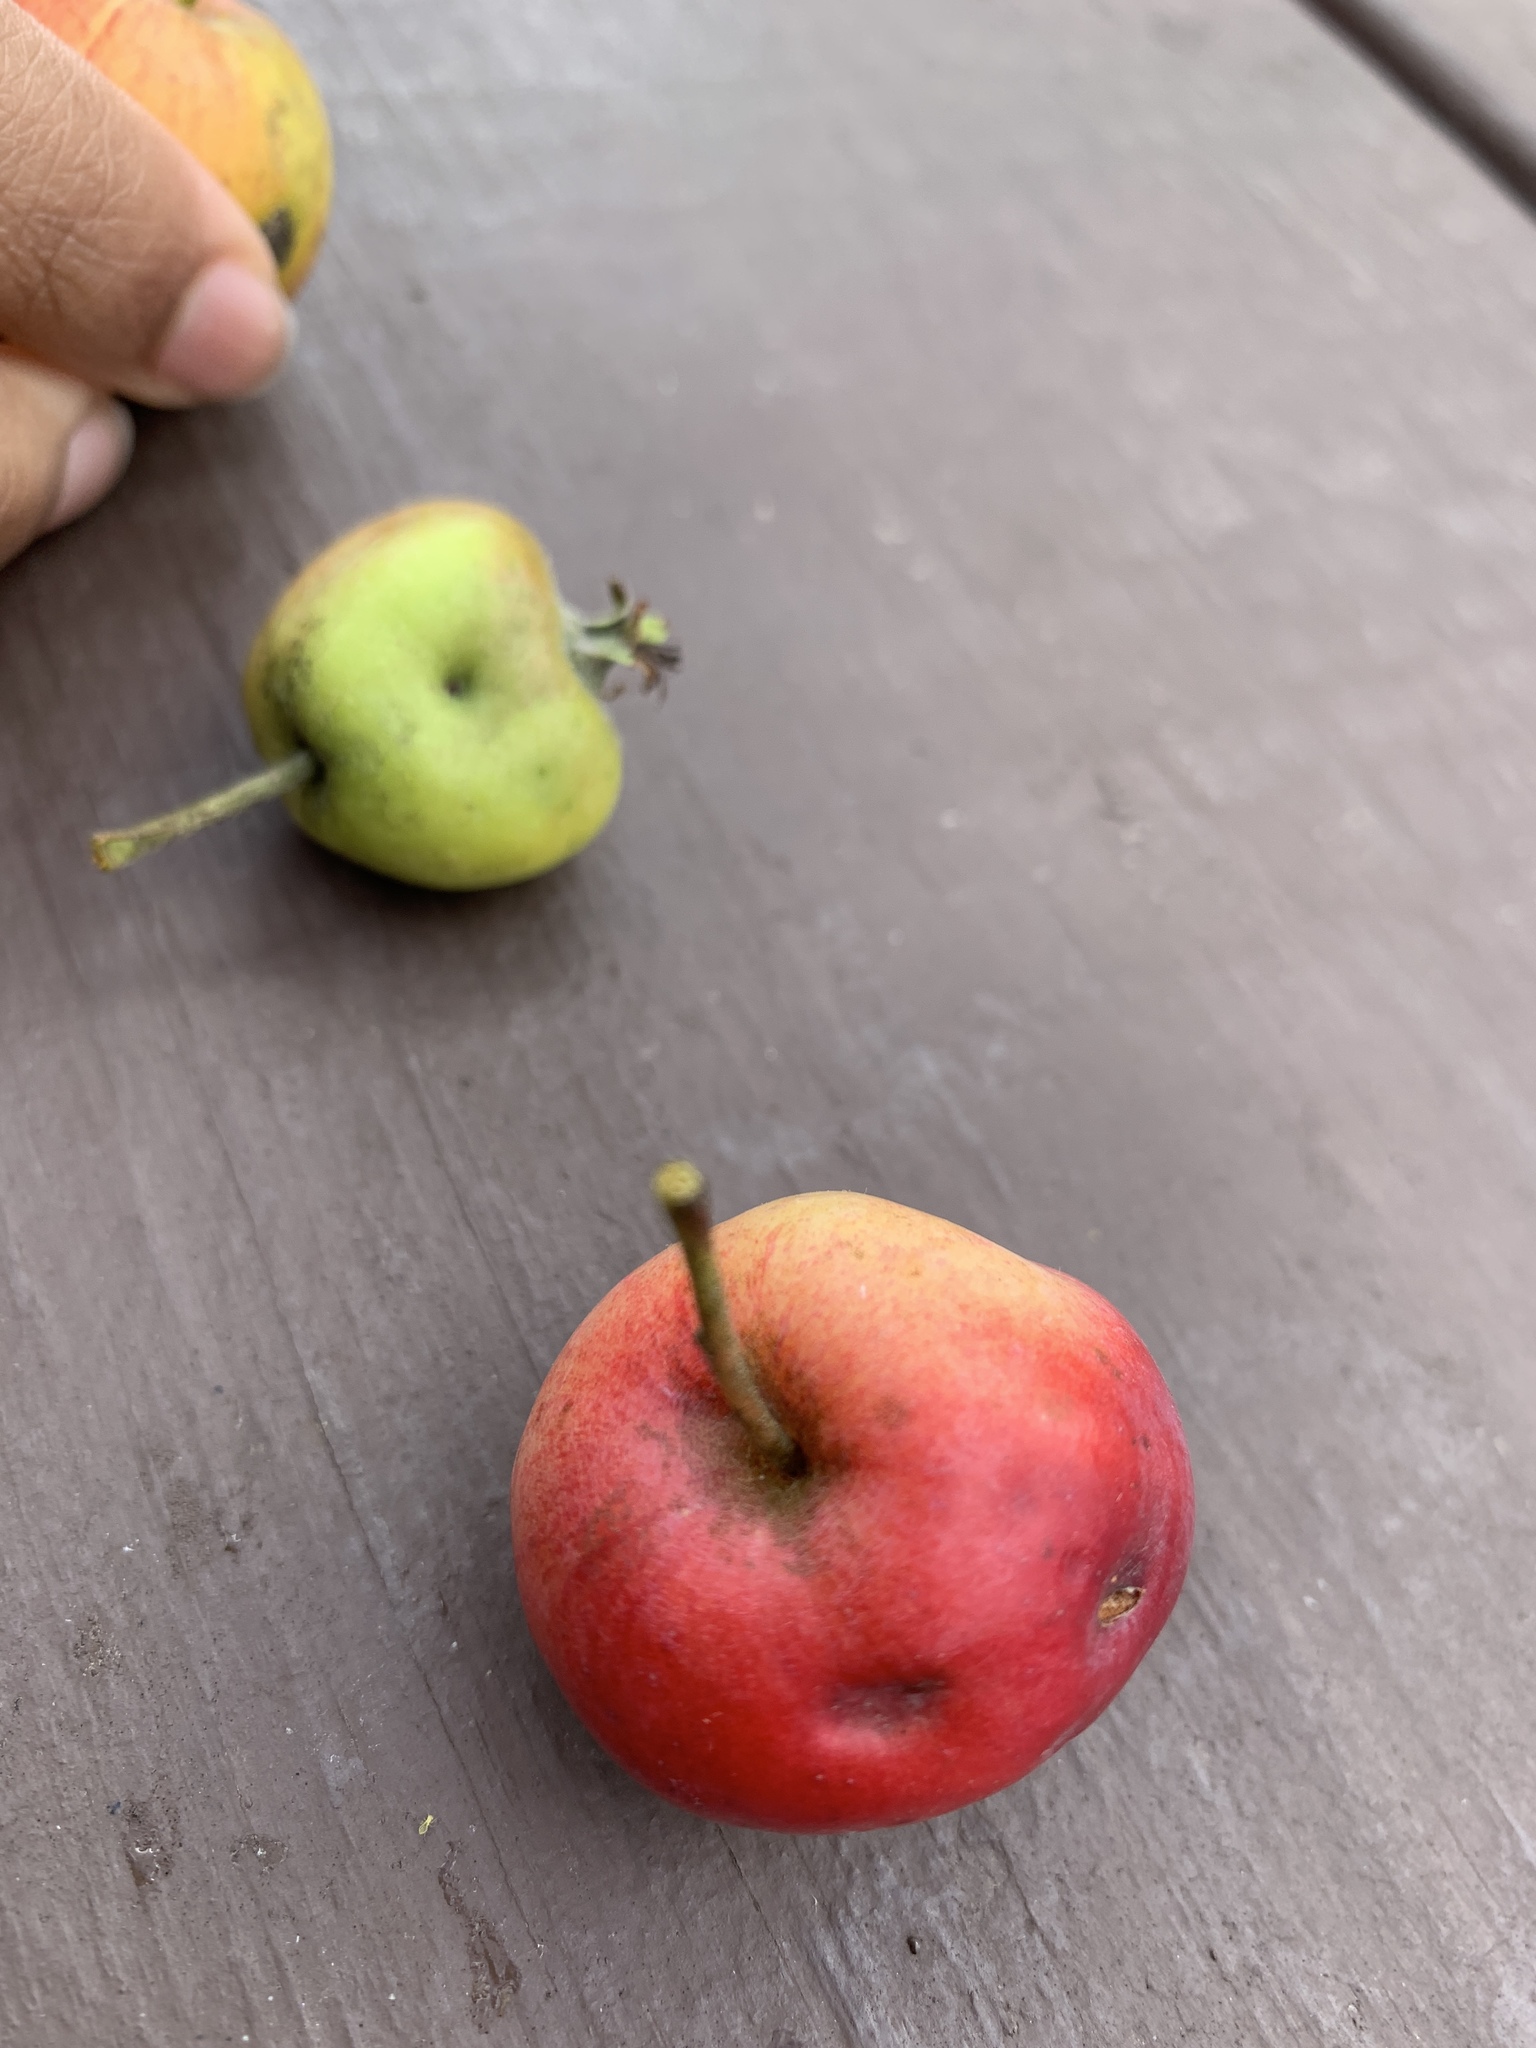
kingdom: Plantae
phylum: Tracheophyta
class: Magnoliopsida
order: Rosales
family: Rosaceae
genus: Malus
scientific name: Malus domestica
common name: Apple
